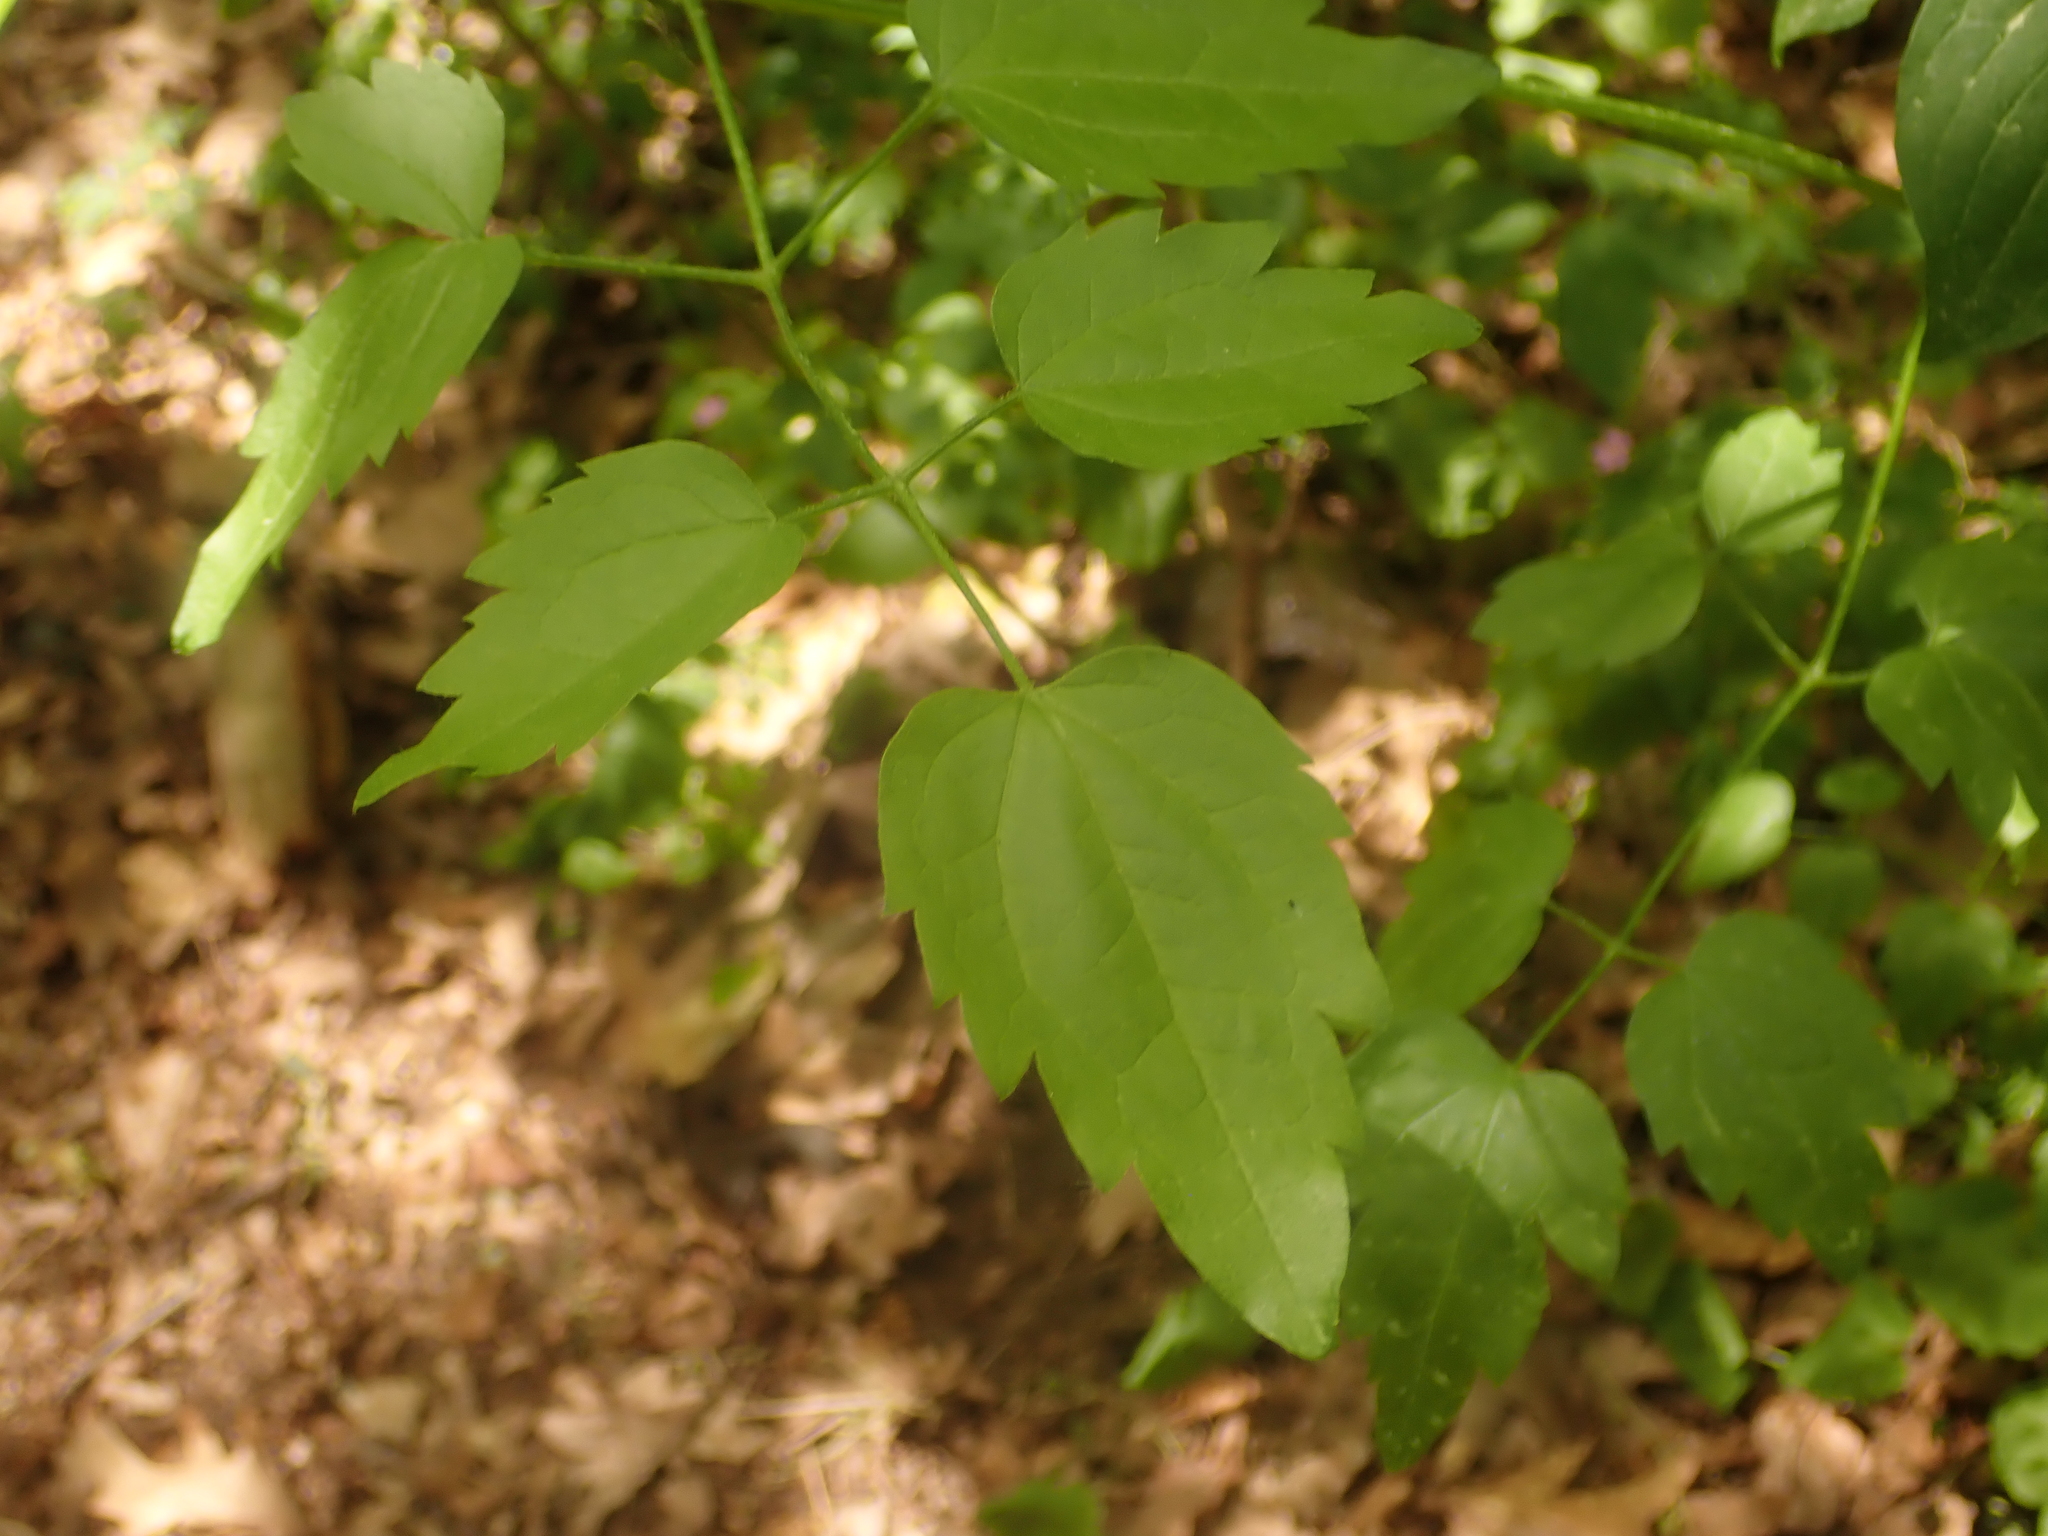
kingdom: Plantae
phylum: Tracheophyta
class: Magnoliopsida
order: Ranunculales
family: Ranunculaceae
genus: Clematis
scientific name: Clematis vitalba
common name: Evergreen clematis
